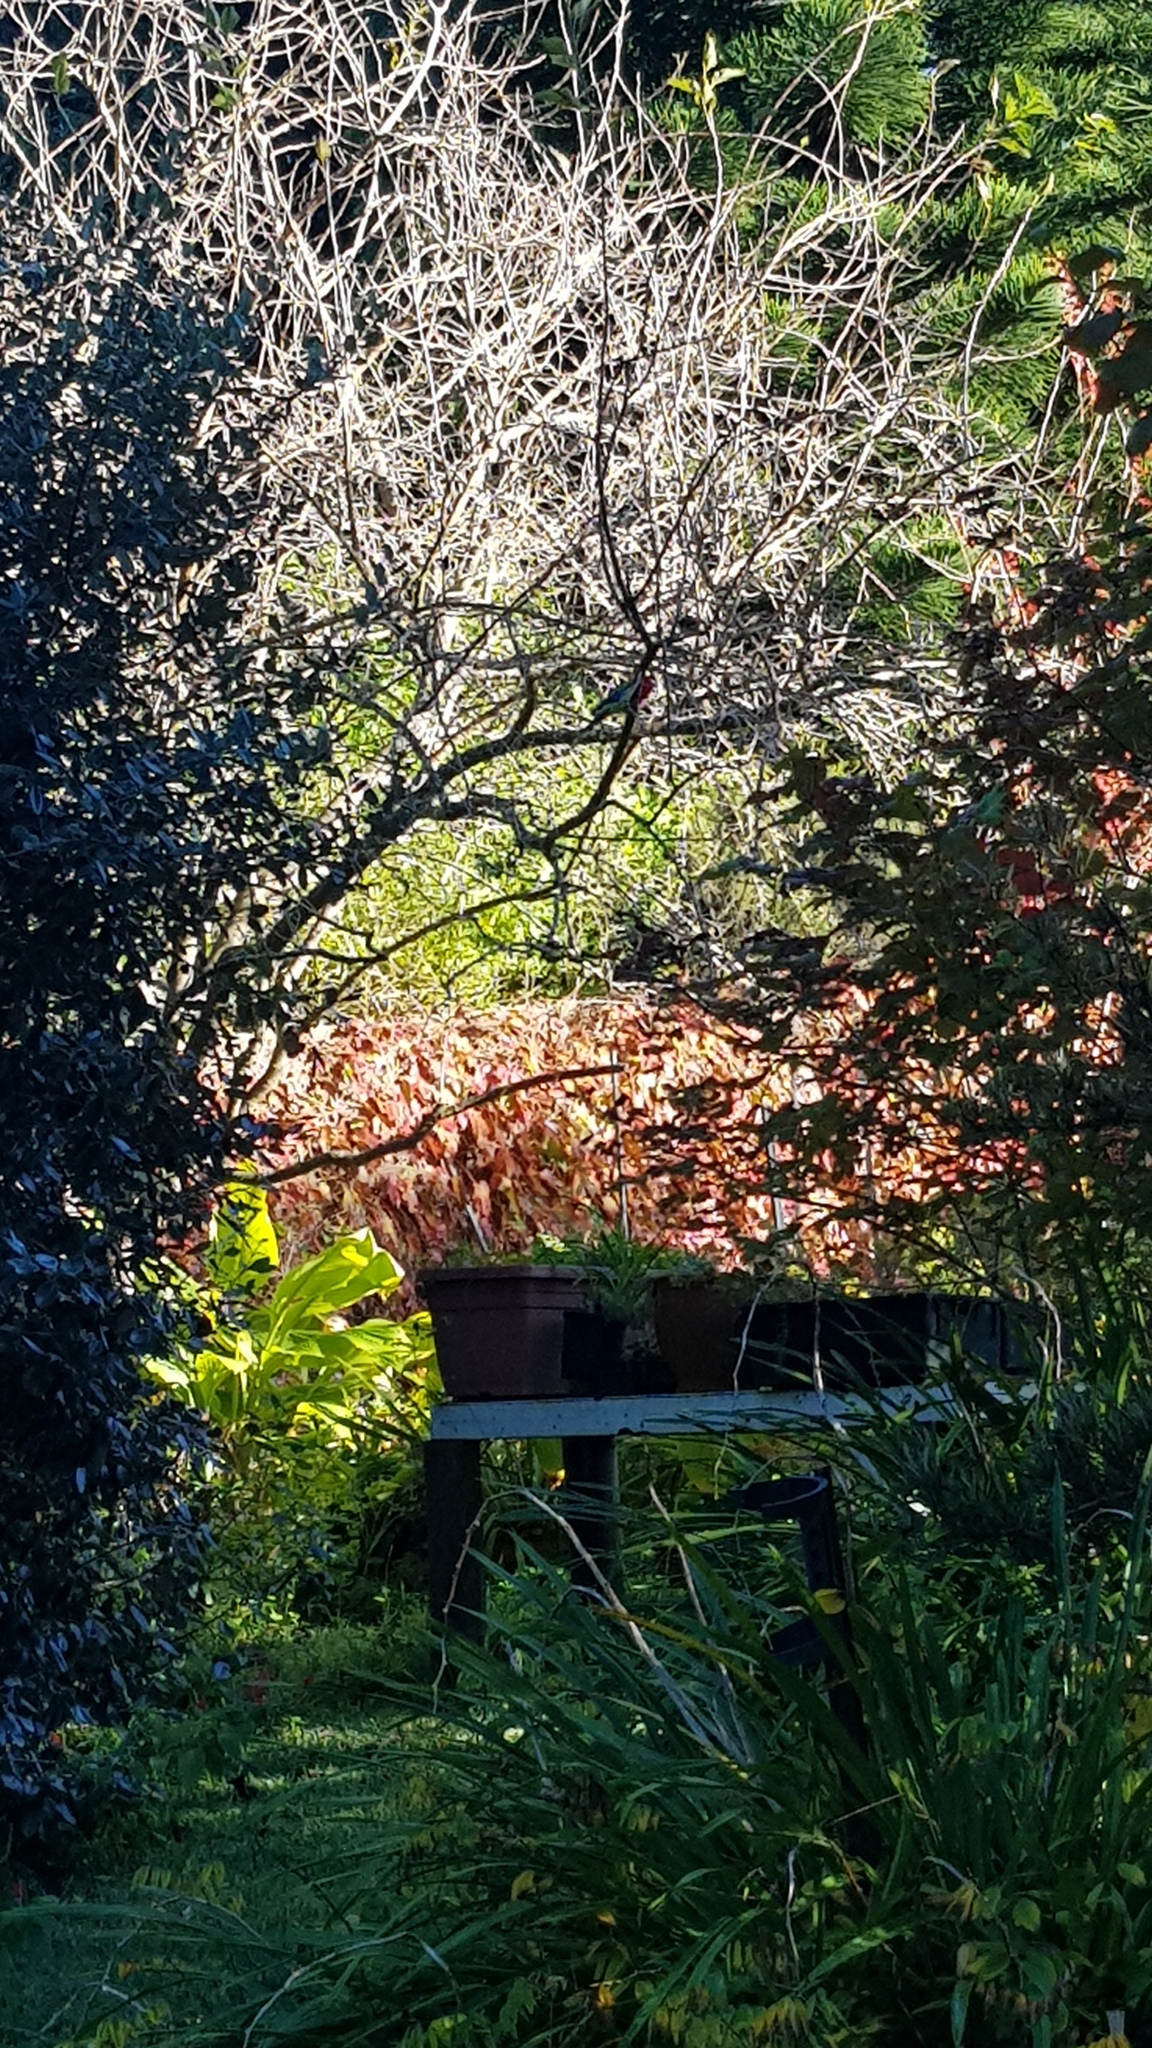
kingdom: Animalia
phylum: Chordata
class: Aves
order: Psittaciformes
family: Psittacidae
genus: Platycercus
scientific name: Platycercus eximius
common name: Eastern rosella
